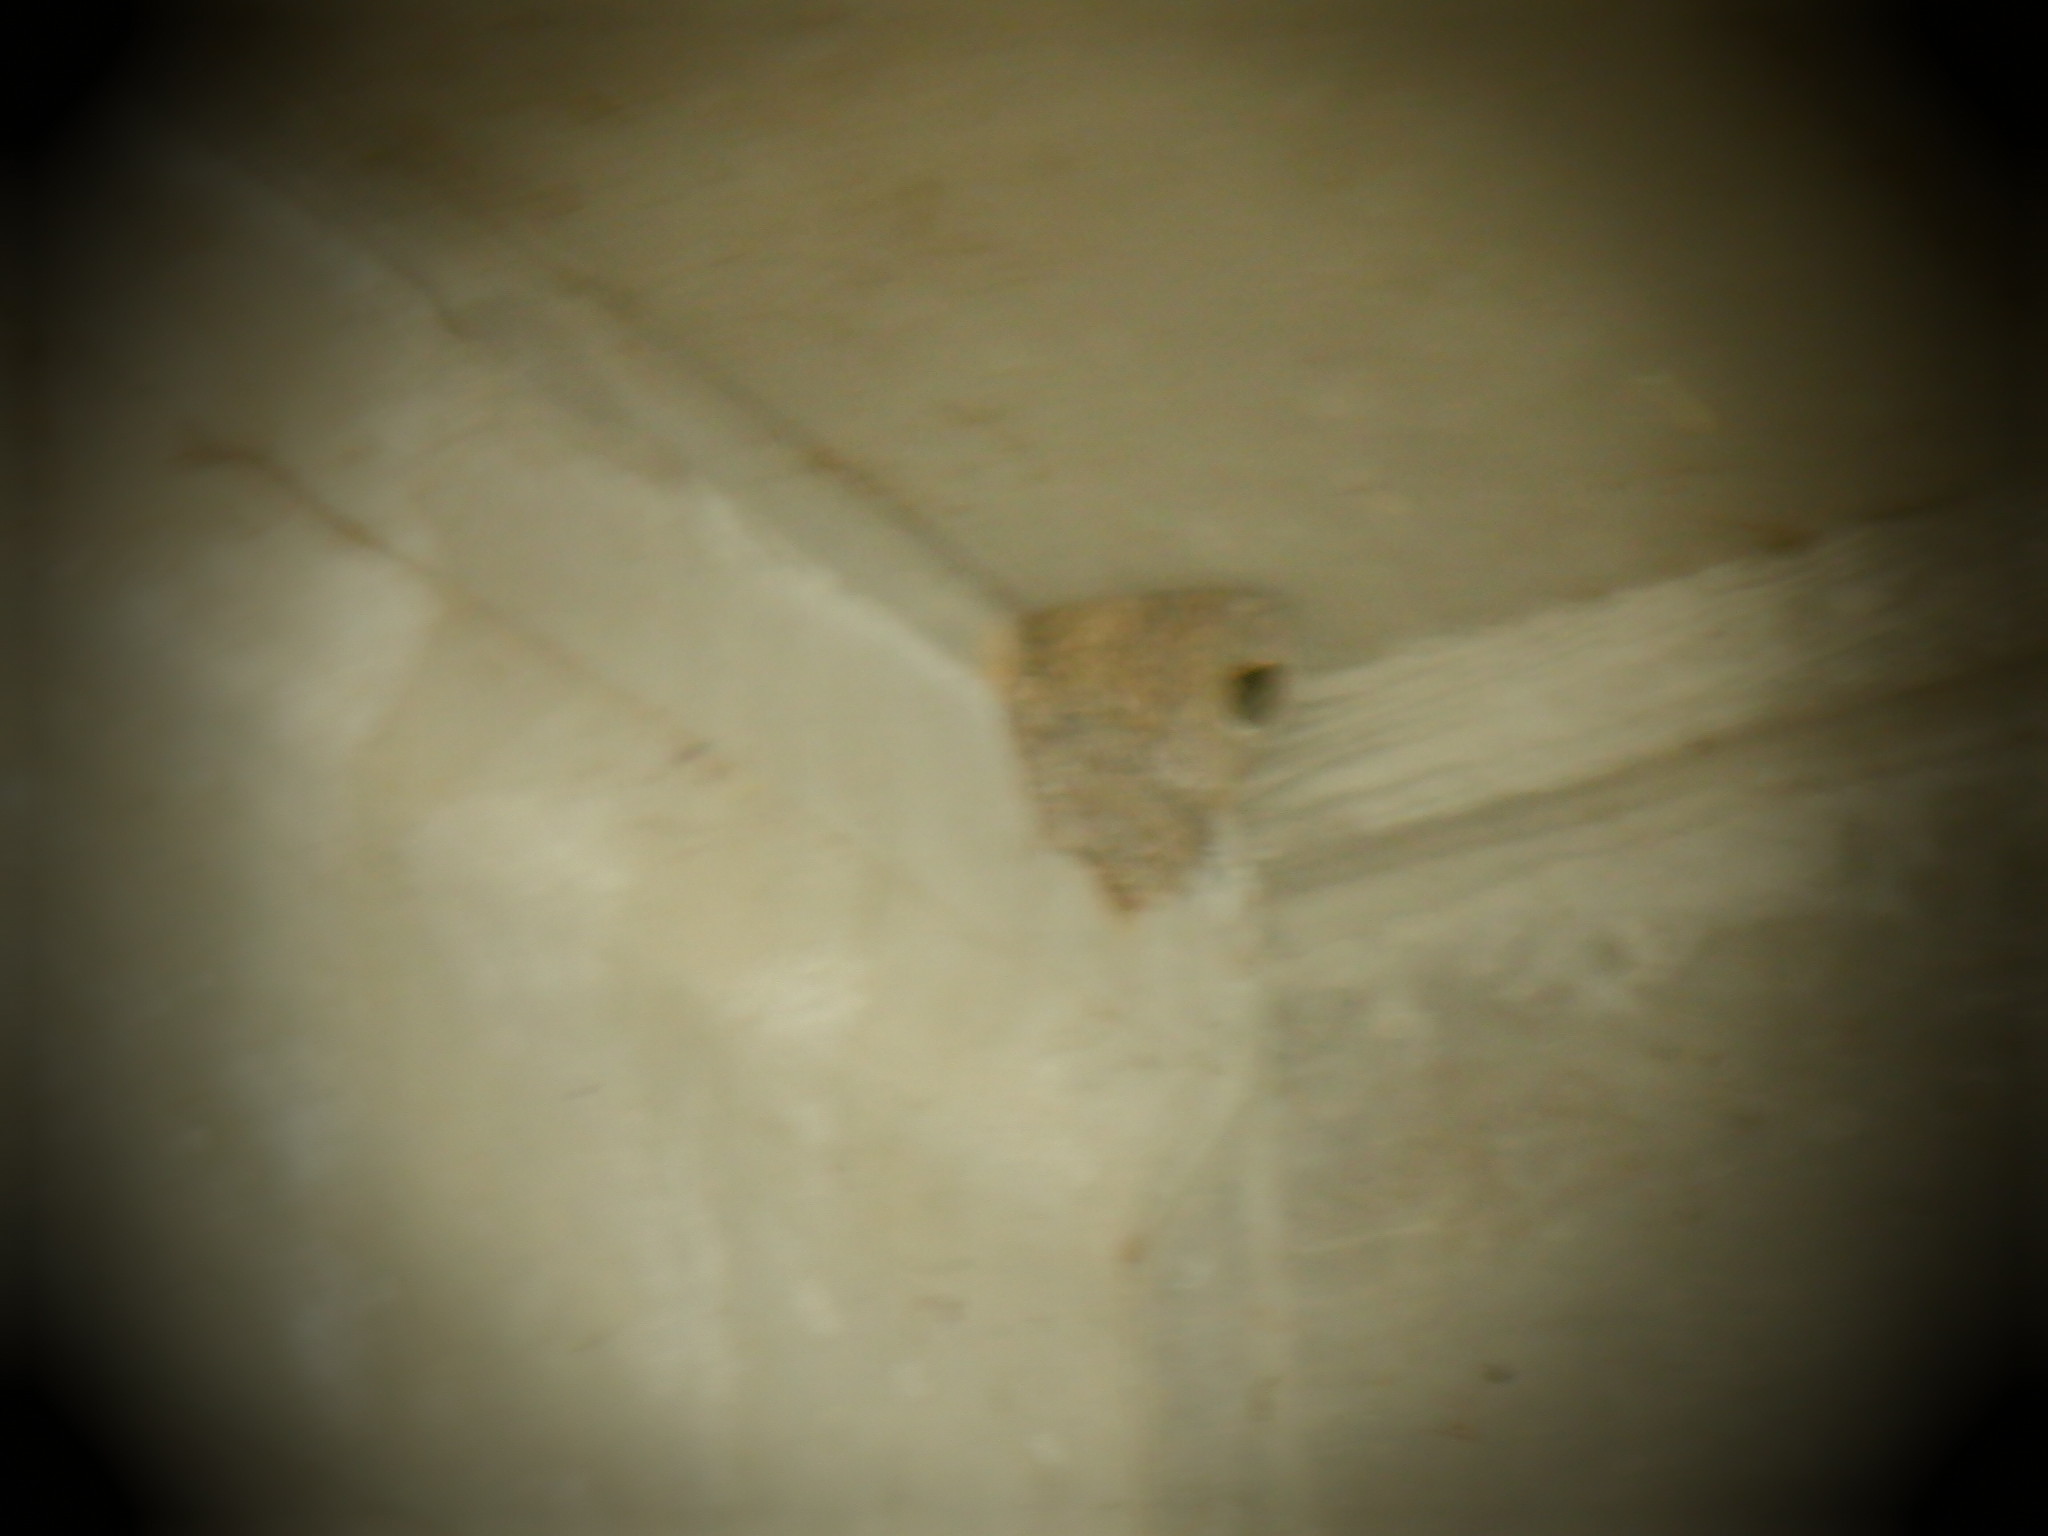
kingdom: Animalia
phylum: Chordata
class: Aves
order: Passeriformes
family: Hirundinidae
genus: Petrochelidon
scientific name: Petrochelidon pyrrhonota
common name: American cliff swallow
